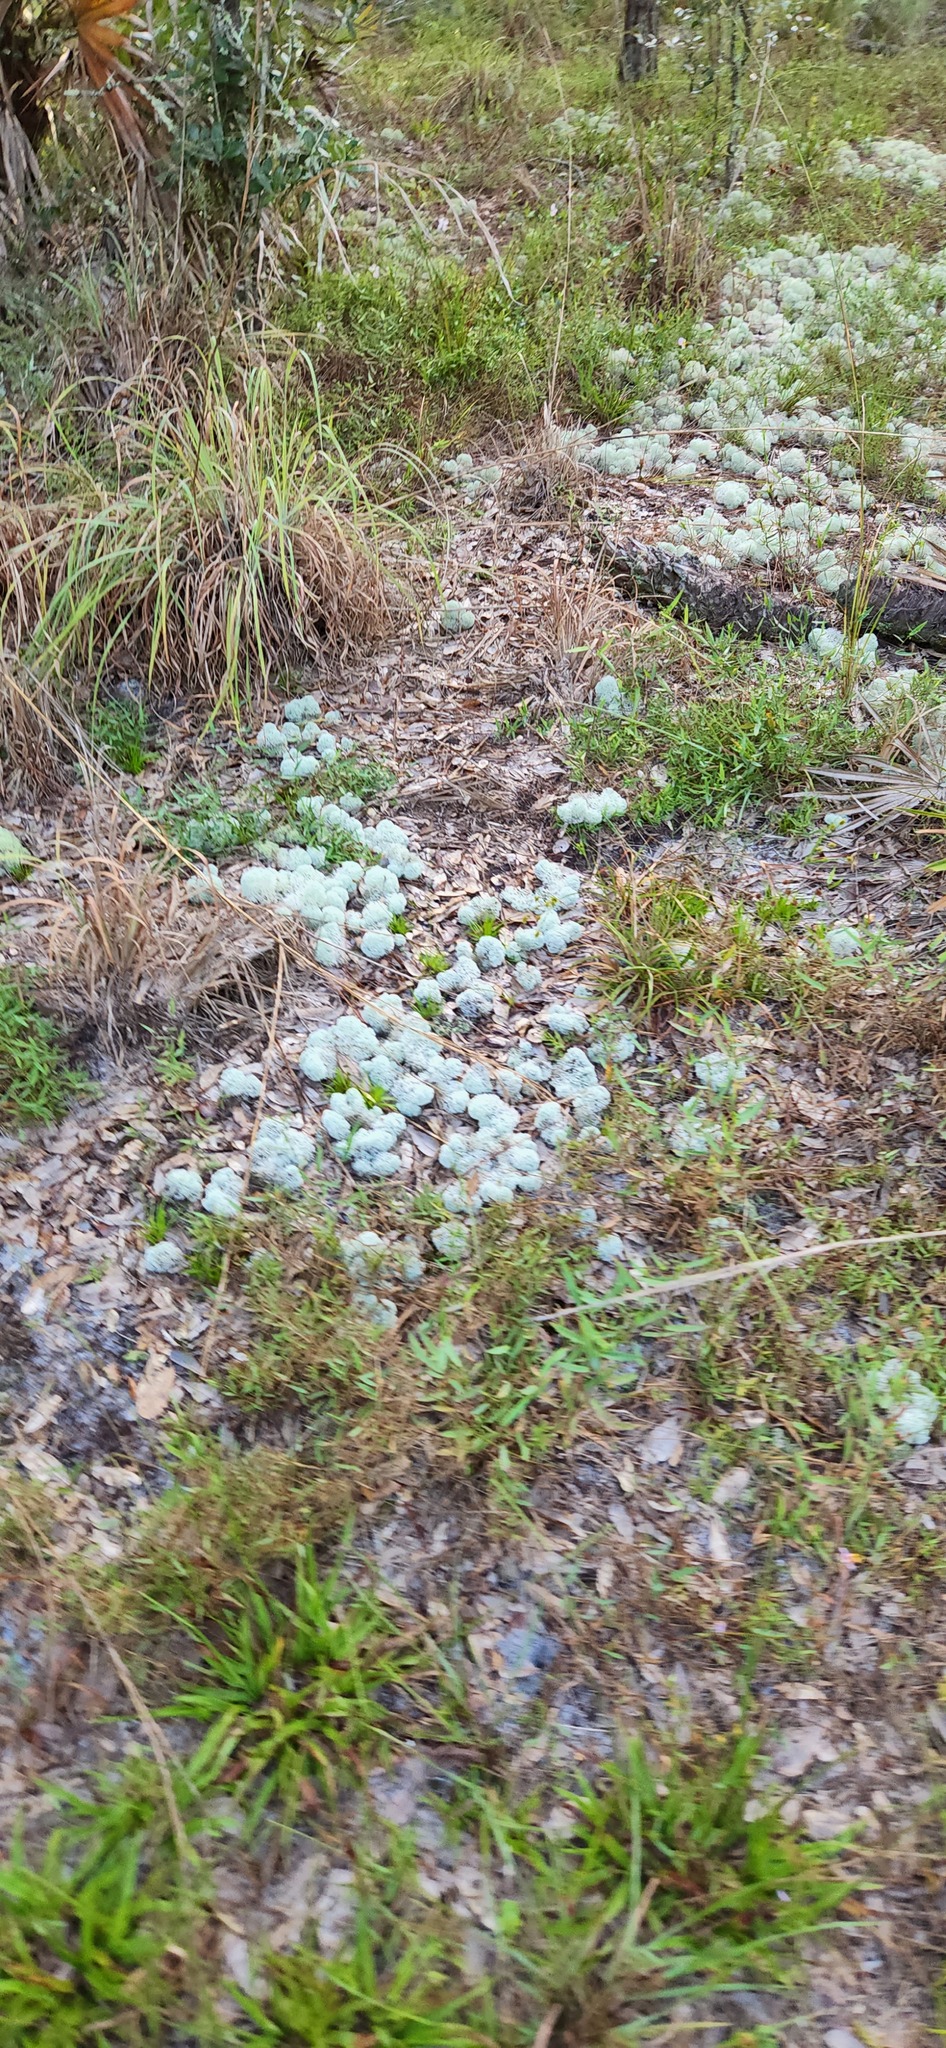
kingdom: Fungi
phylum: Ascomycota
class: Lecanoromycetes
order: Lecanorales
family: Cladoniaceae
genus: Cladonia
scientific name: Cladonia evansii
